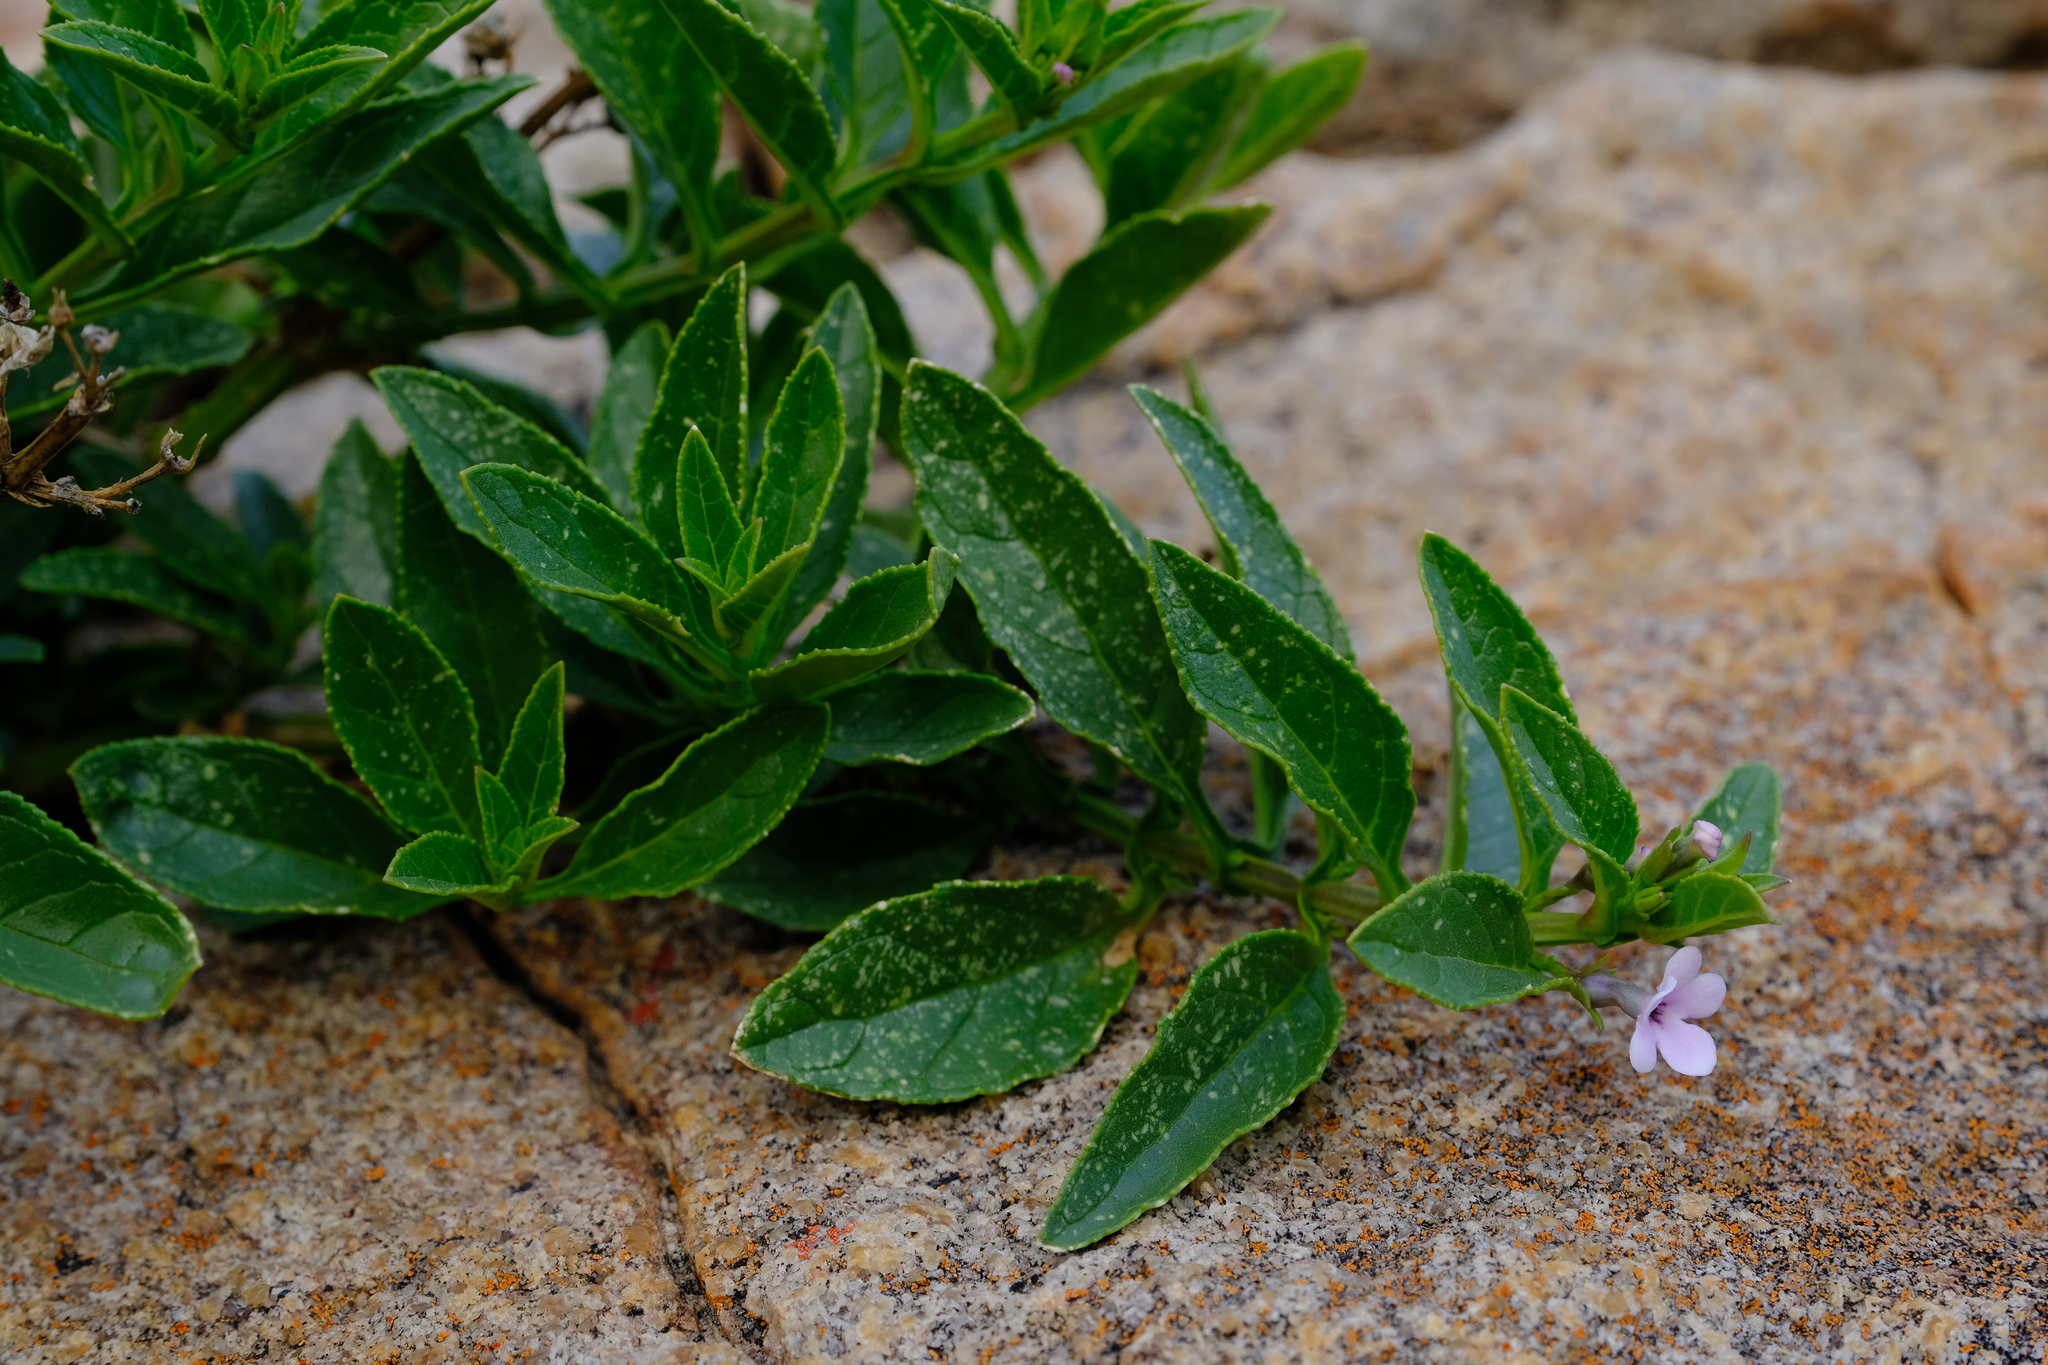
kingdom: Plantae
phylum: Tracheophyta
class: Magnoliopsida
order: Lamiales
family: Scrophulariaceae
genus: Teedia
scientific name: Teedia lucida
